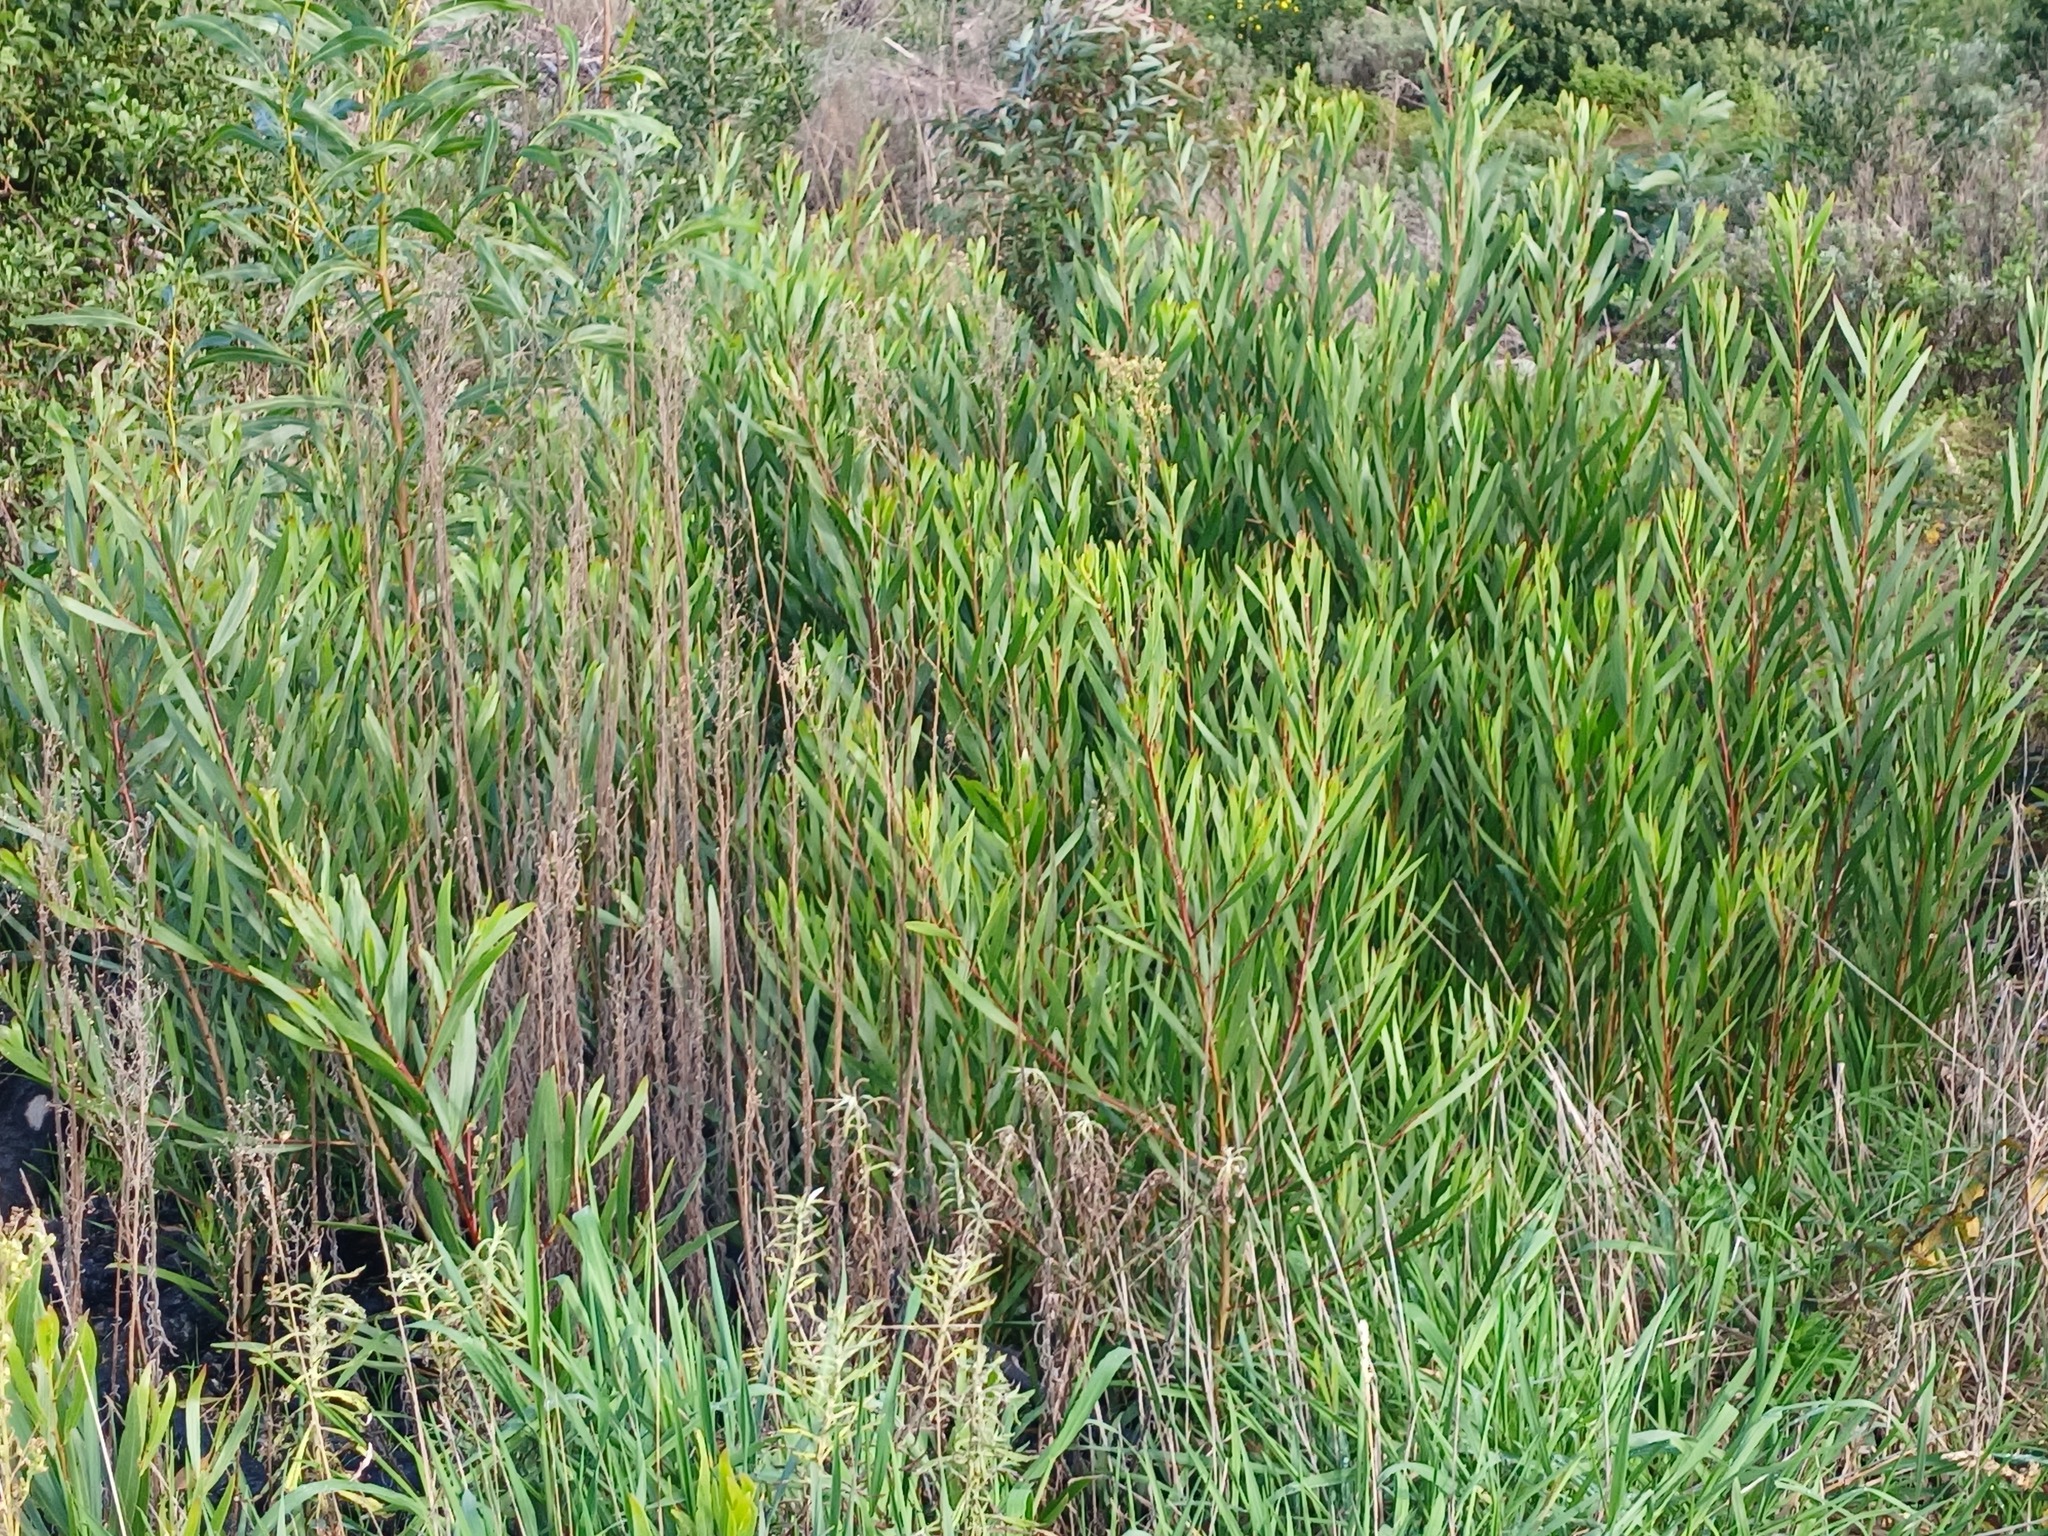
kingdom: Plantae
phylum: Tracheophyta
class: Magnoliopsida
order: Fabales
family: Fabaceae
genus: Acacia
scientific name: Acacia longifolia
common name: Sydney golden wattle
